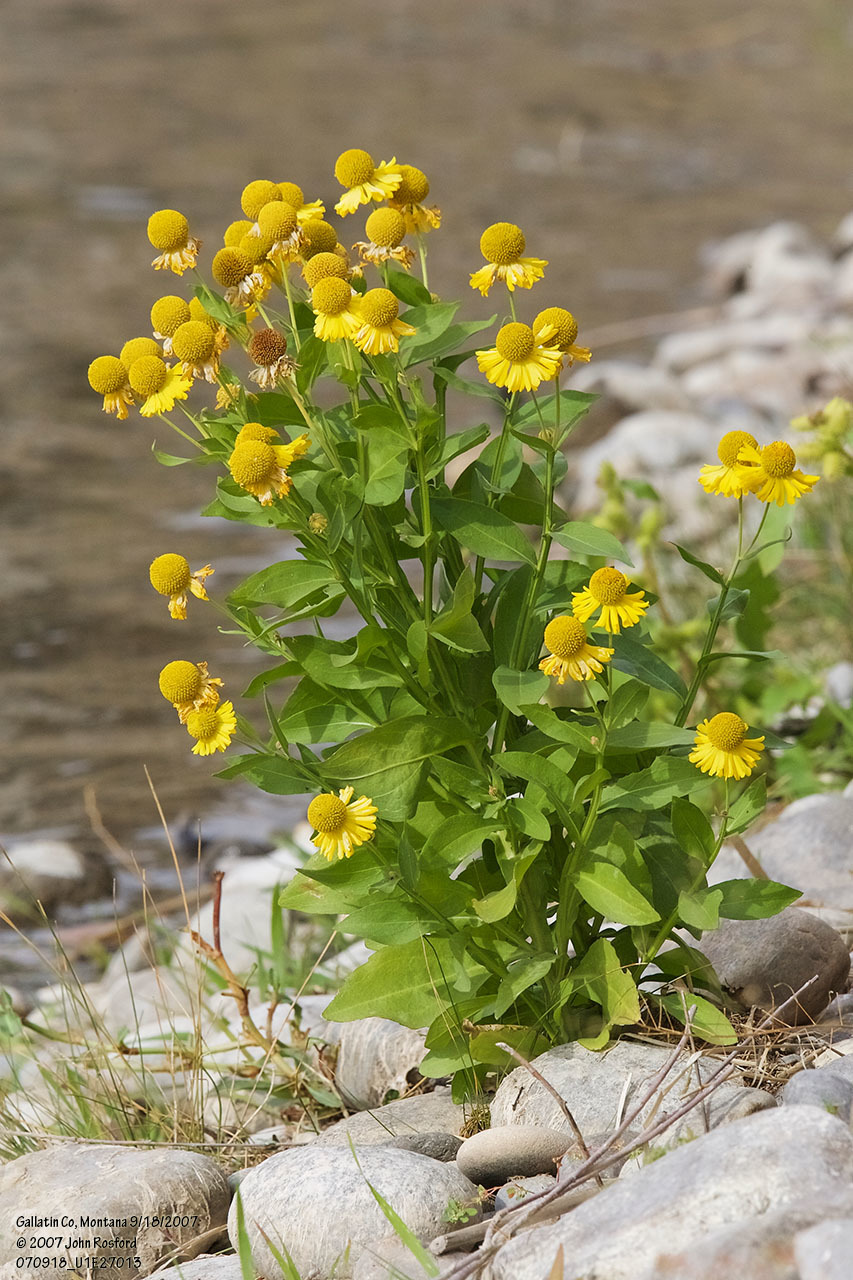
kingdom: Plantae
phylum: Tracheophyta
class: Magnoliopsida
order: Asterales
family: Asteraceae
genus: Helenium
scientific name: Helenium autumnale
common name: Sneezeweed
